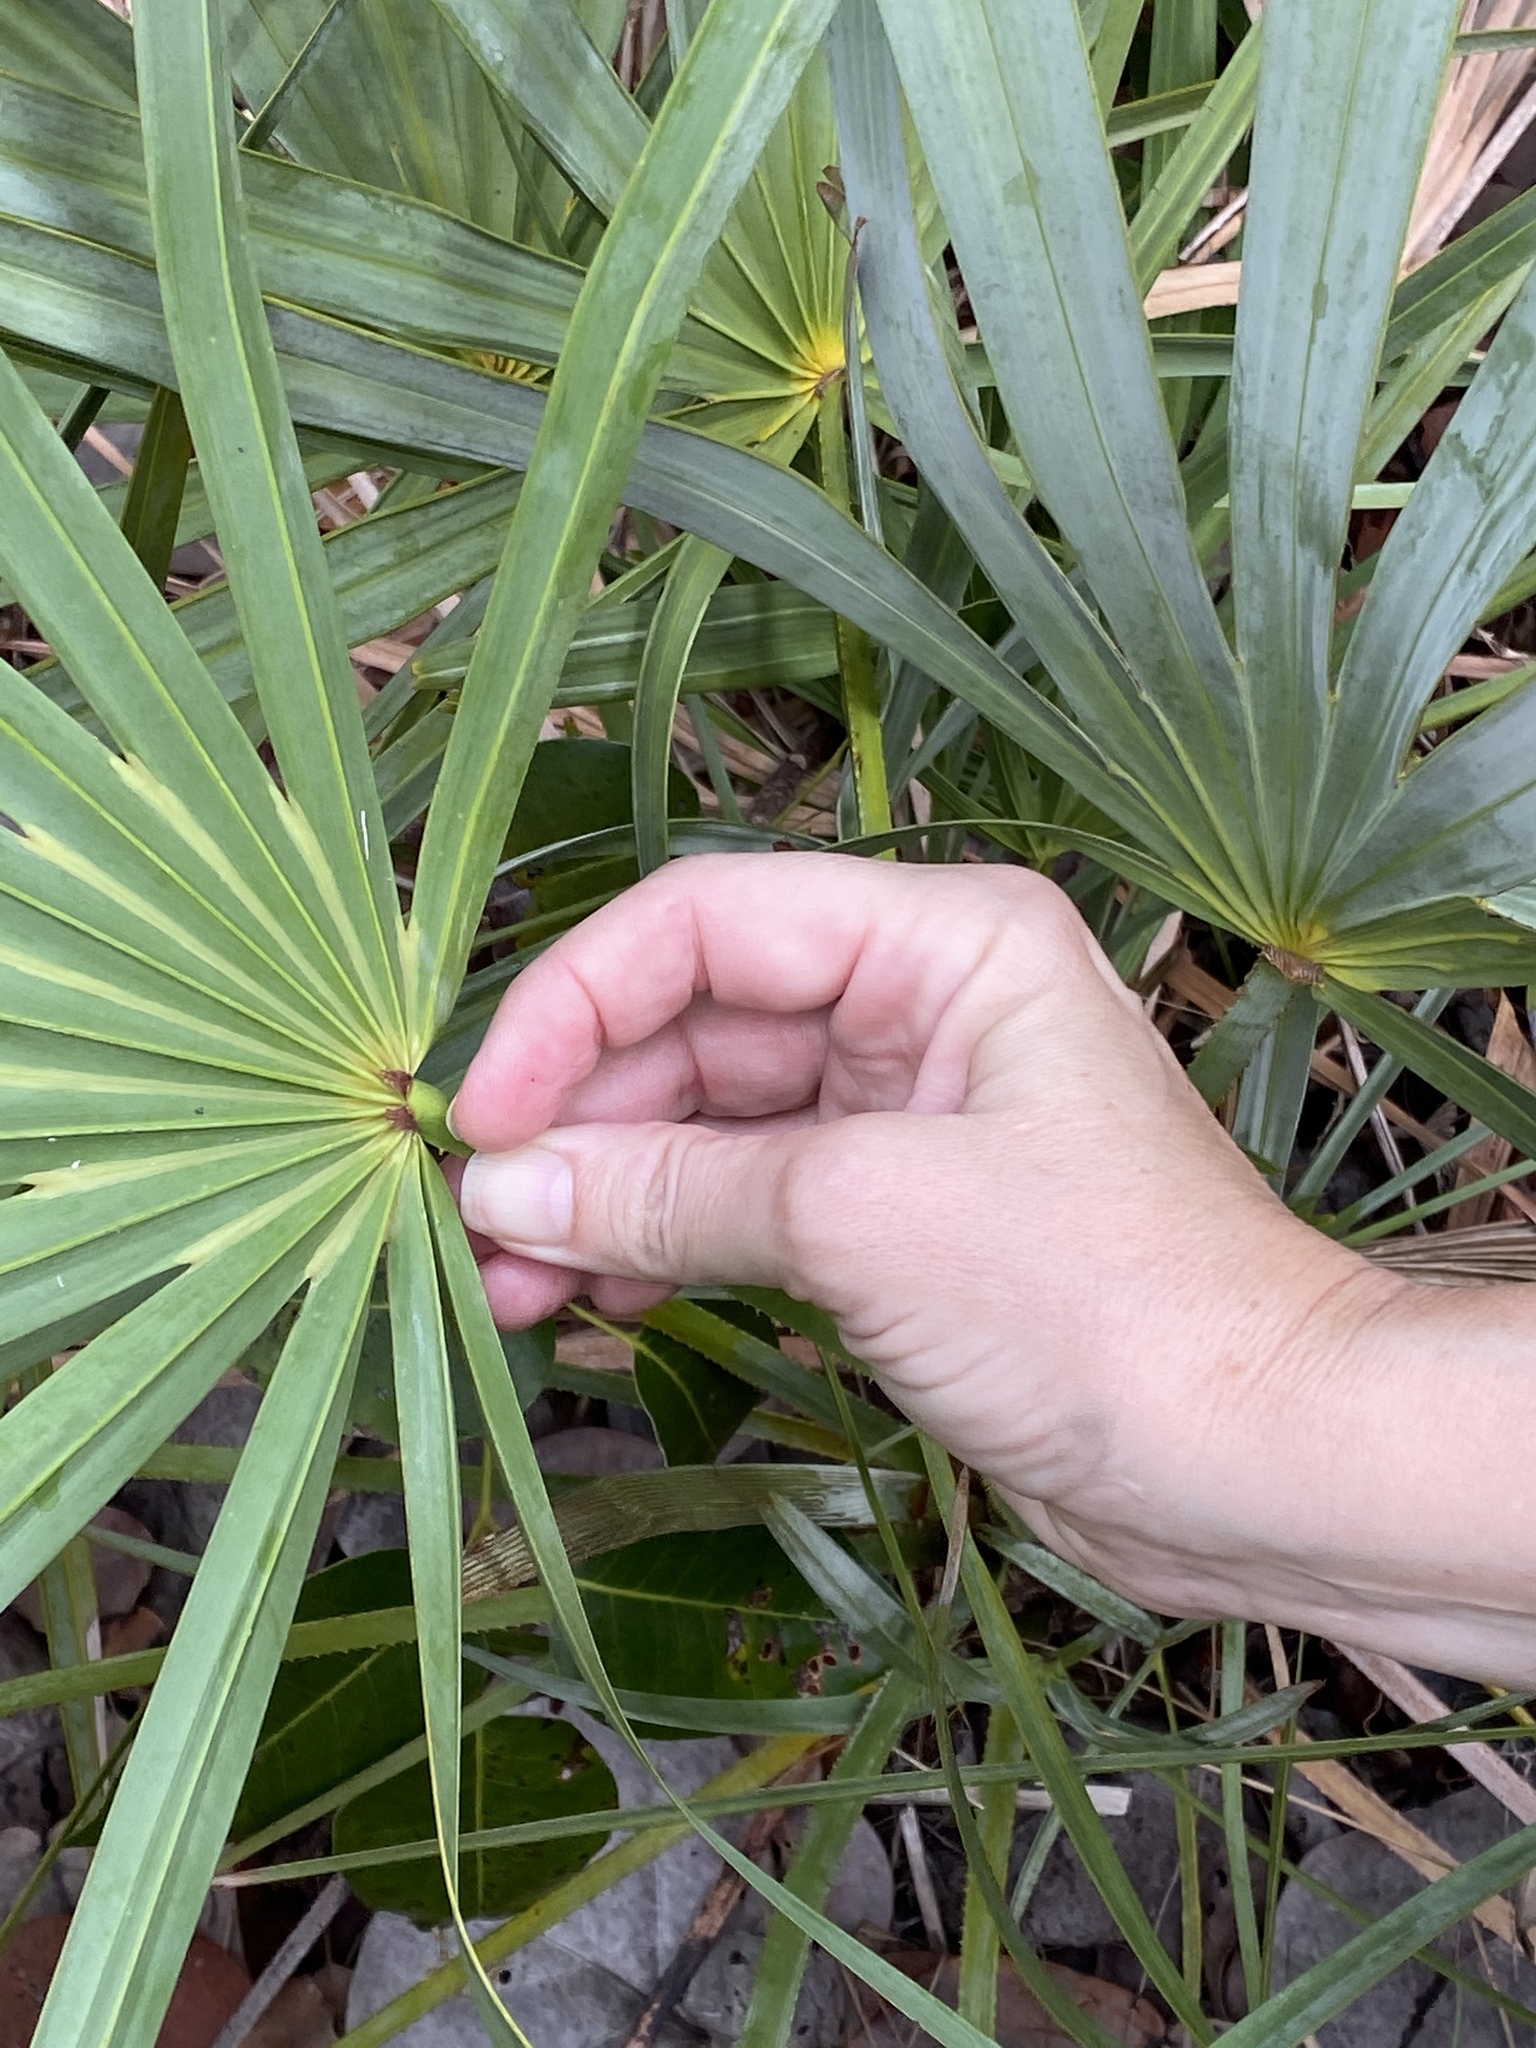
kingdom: Plantae
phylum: Tracheophyta
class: Liliopsida
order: Arecales
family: Arecaceae
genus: Serenoa
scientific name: Serenoa repens
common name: Saw-palmetto
